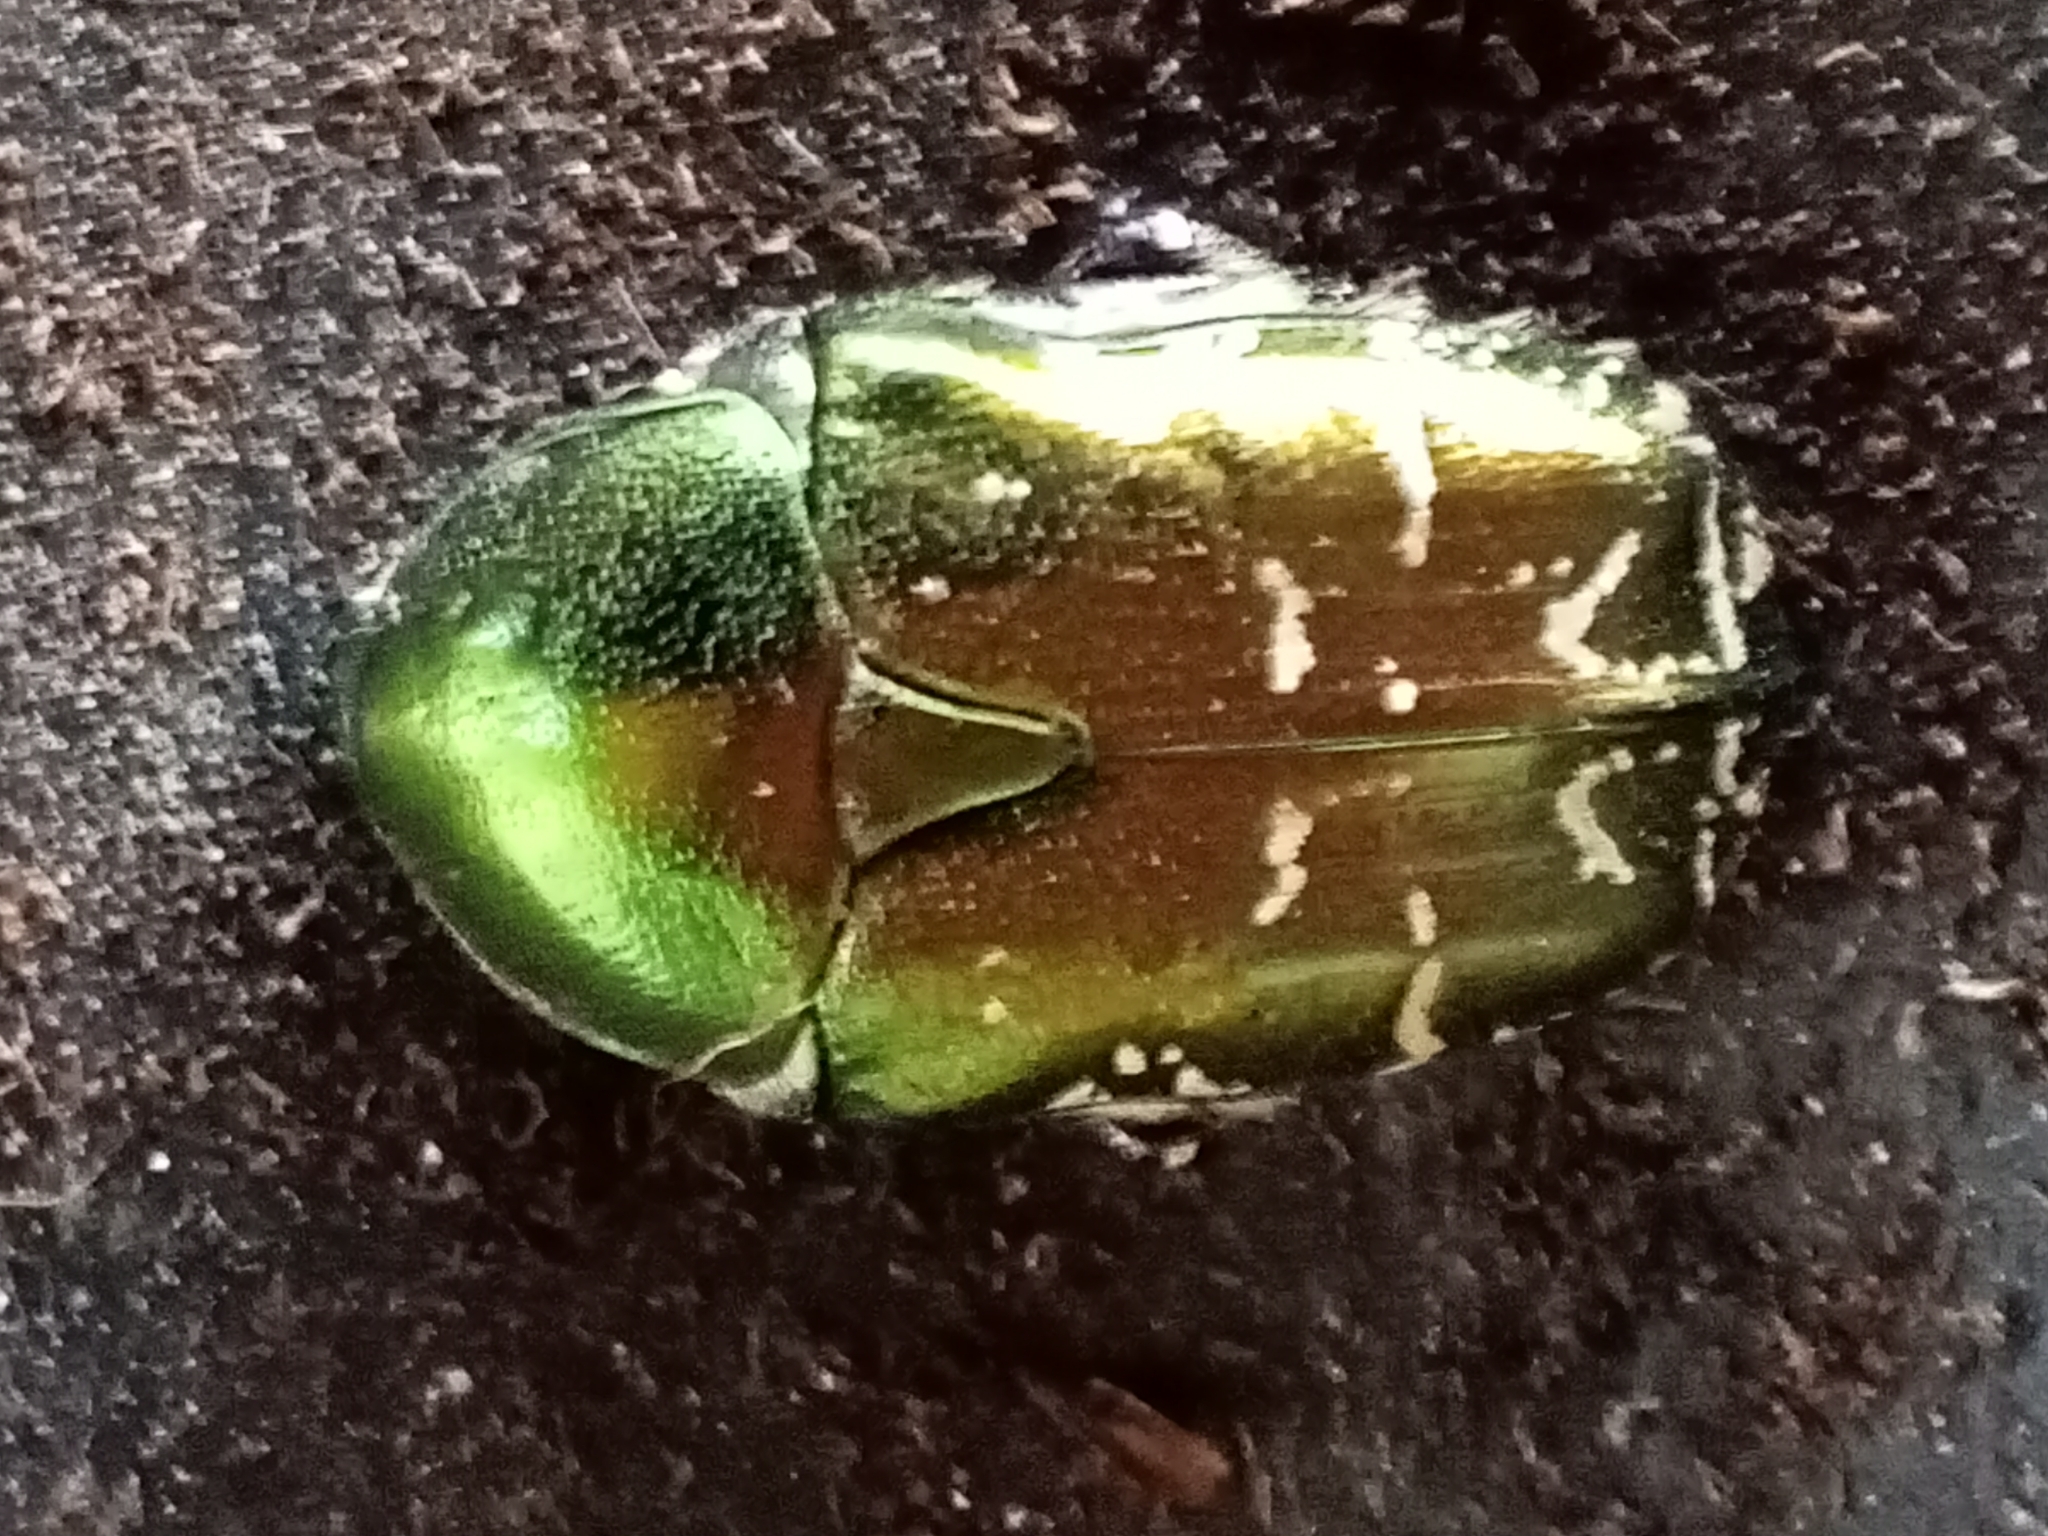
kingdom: Animalia
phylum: Arthropoda
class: Insecta
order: Coleoptera
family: Scarabaeidae
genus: Cetonia
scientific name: Cetonia aurata
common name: Rose chafer
